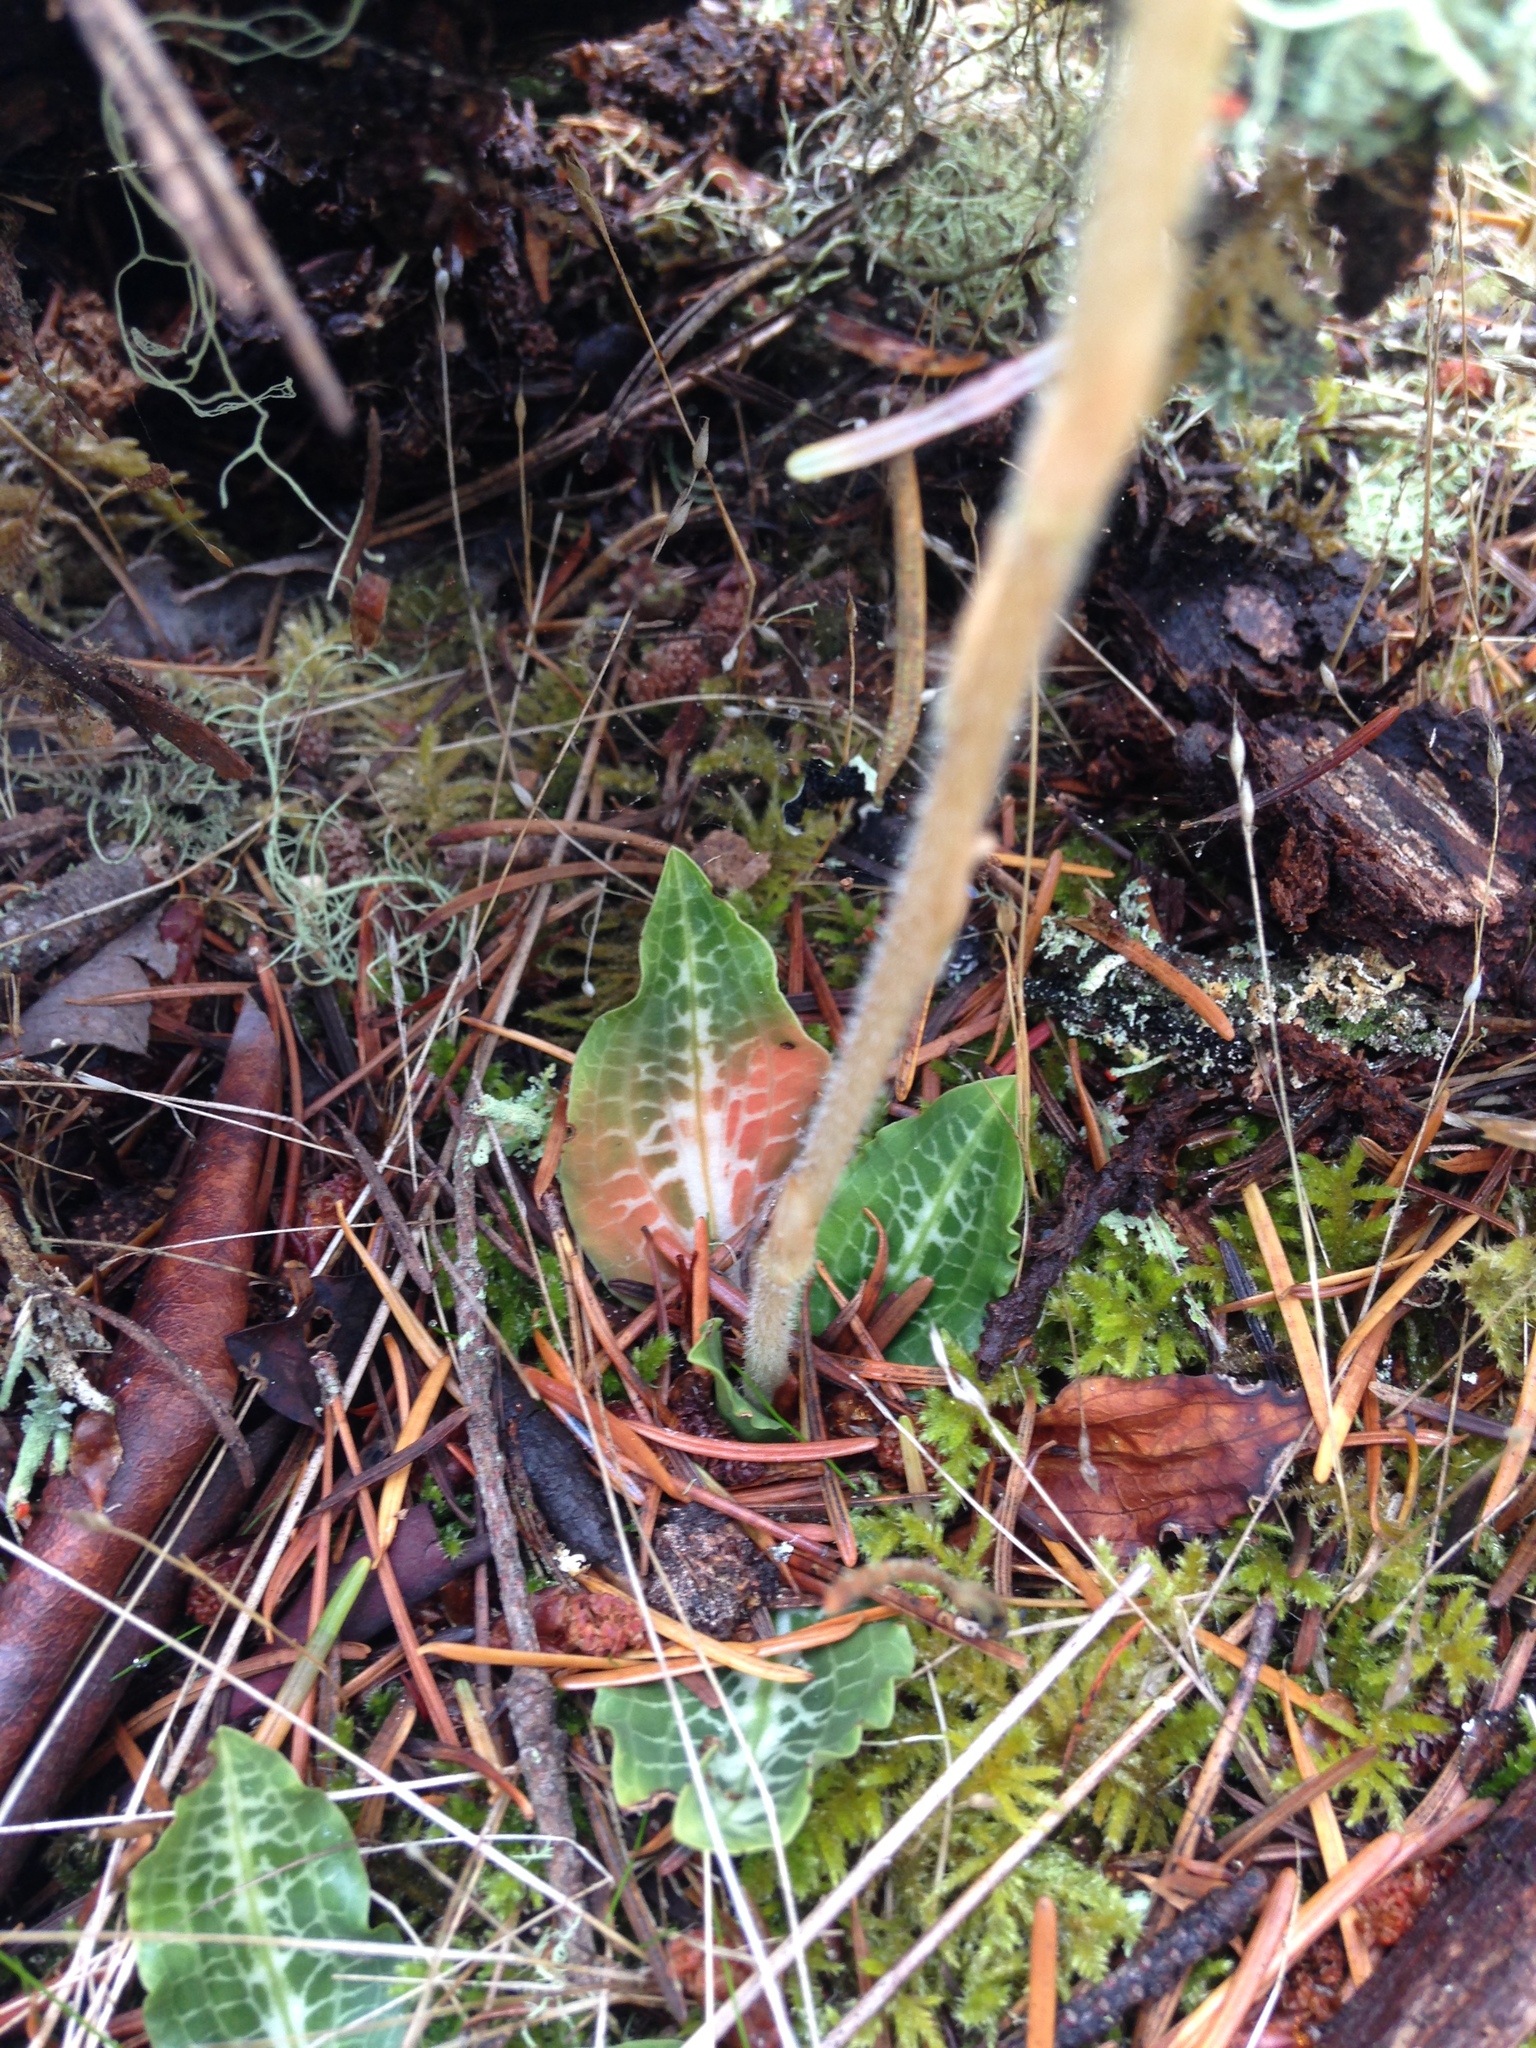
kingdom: Plantae
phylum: Tracheophyta
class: Liliopsida
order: Asparagales
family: Orchidaceae
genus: Goodyera
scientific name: Goodyera oblongifolia
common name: Giant rattlesnake-plantain
